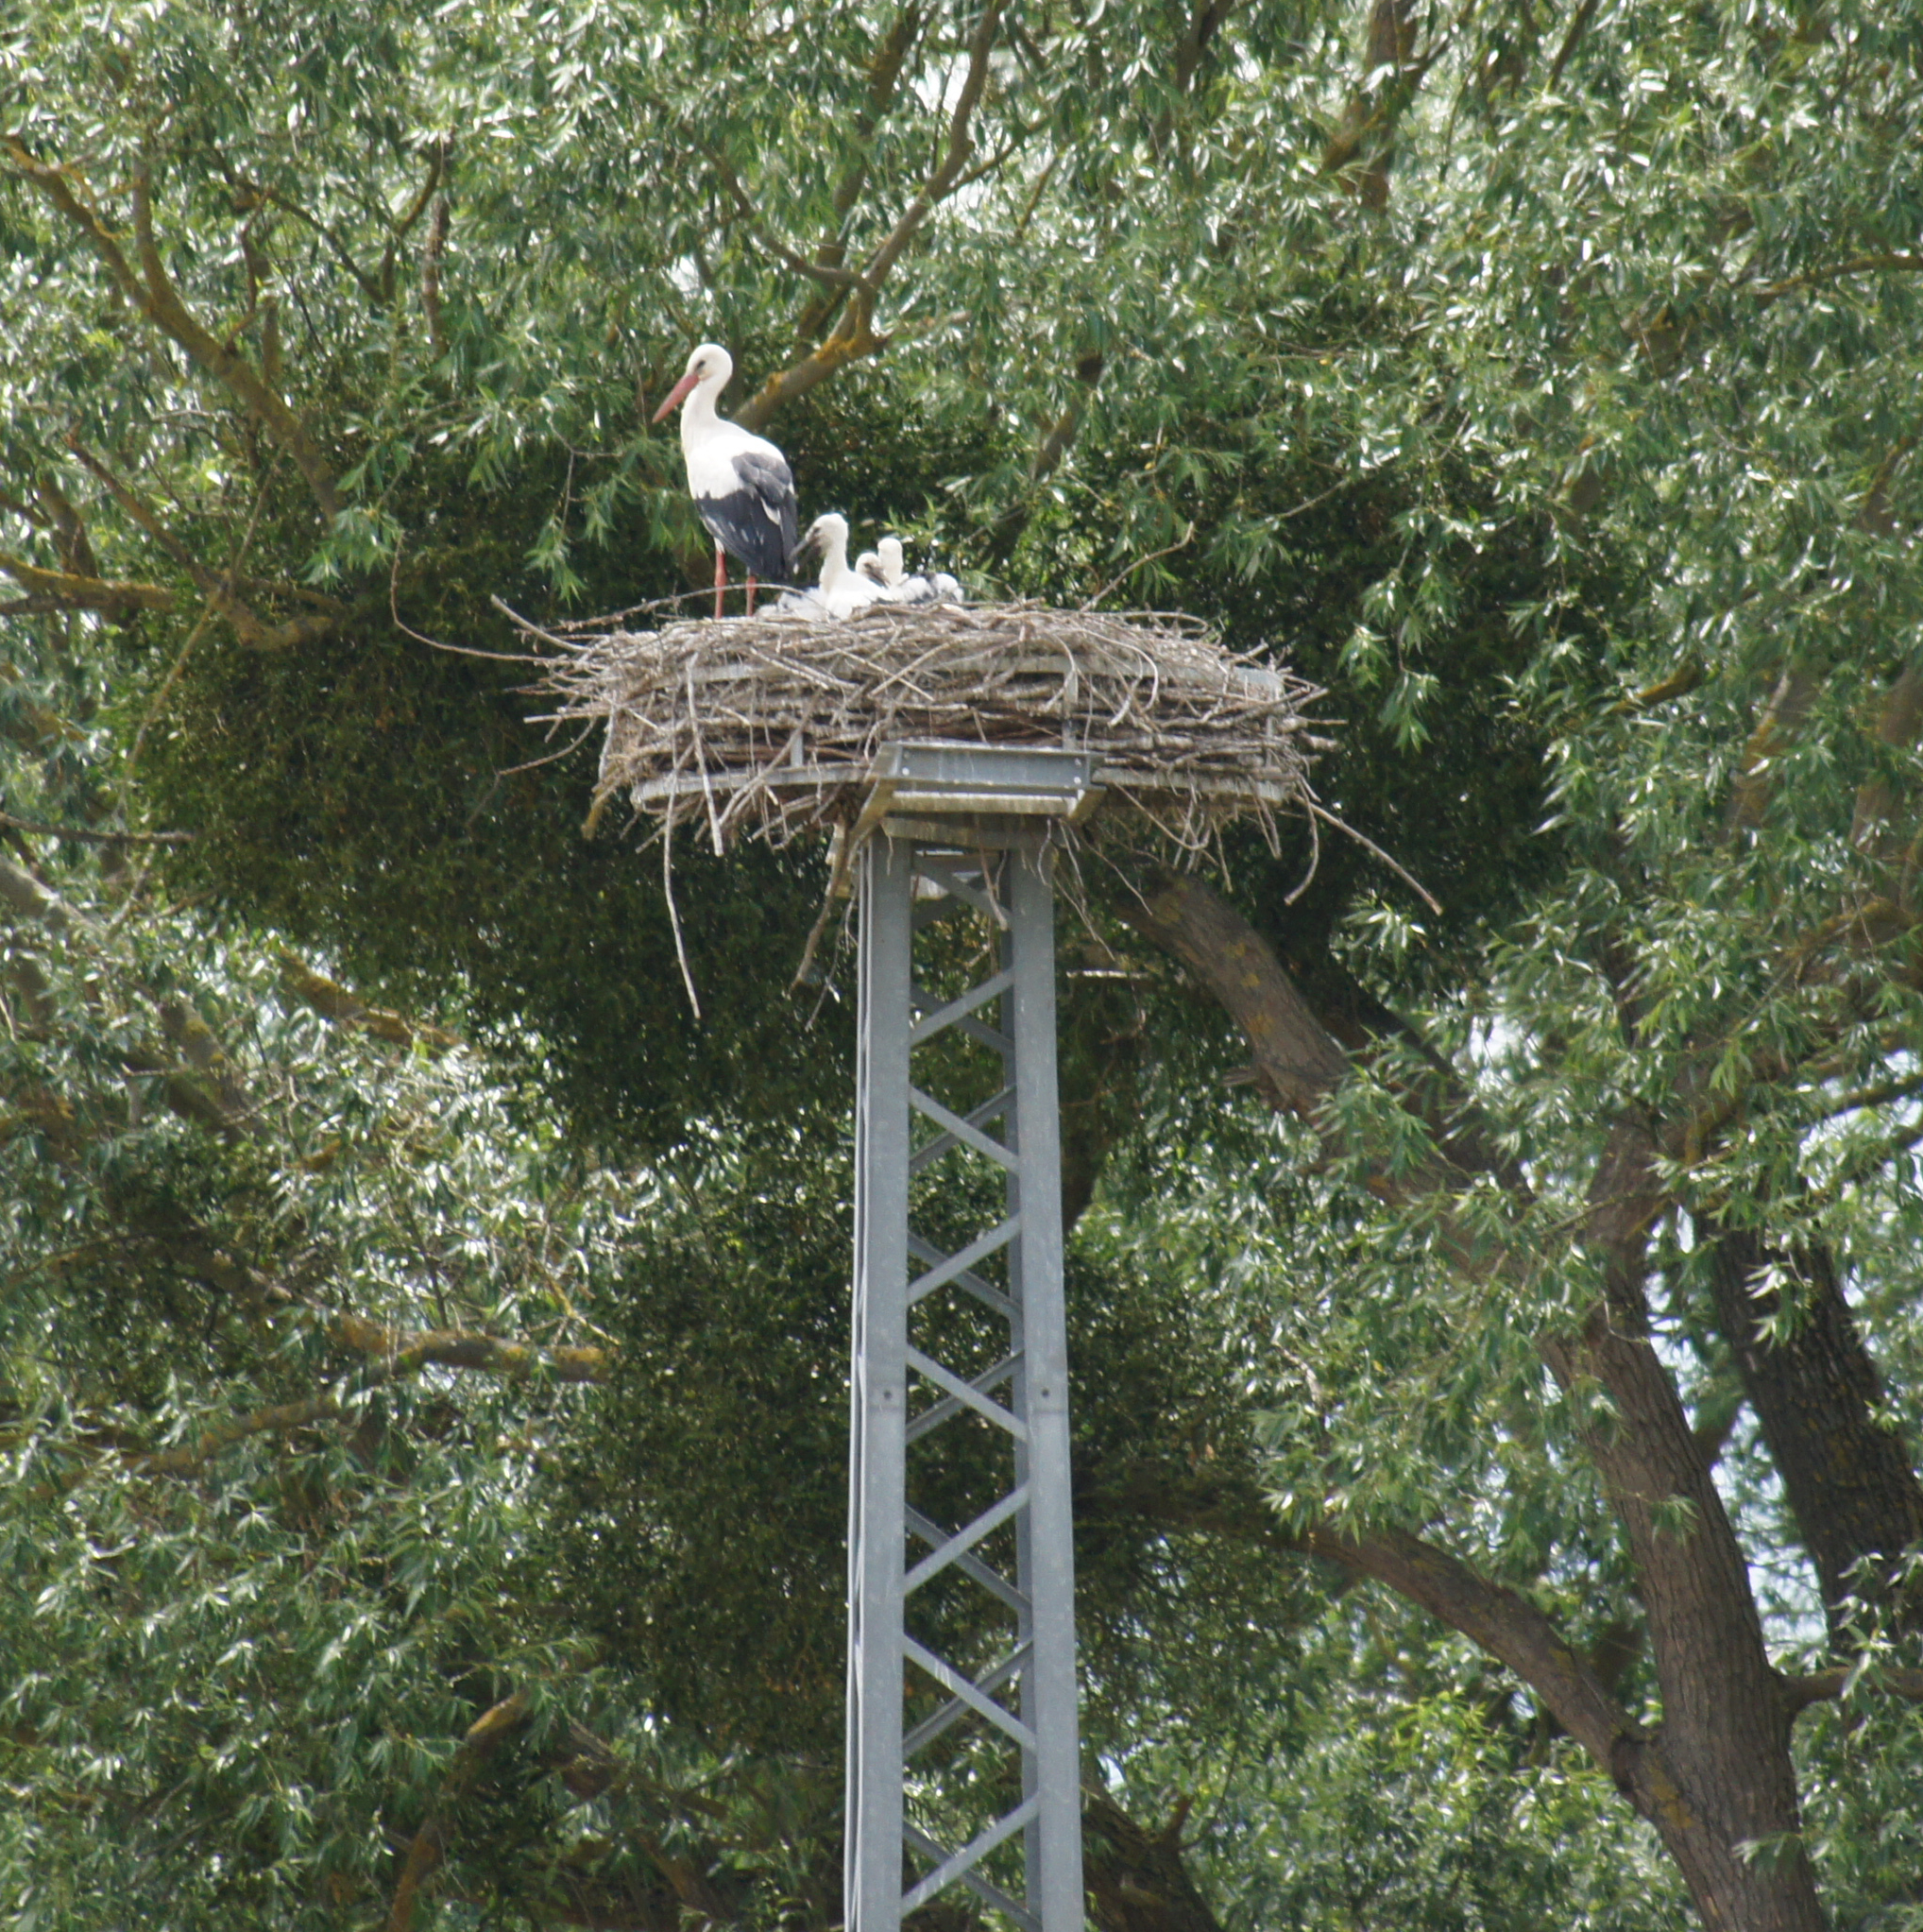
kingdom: Animalia
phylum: Chordata
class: Aves
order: Ciconiiformes
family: Ciconiidae
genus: Ciconia
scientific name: Ciconia ciconia
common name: White stork
